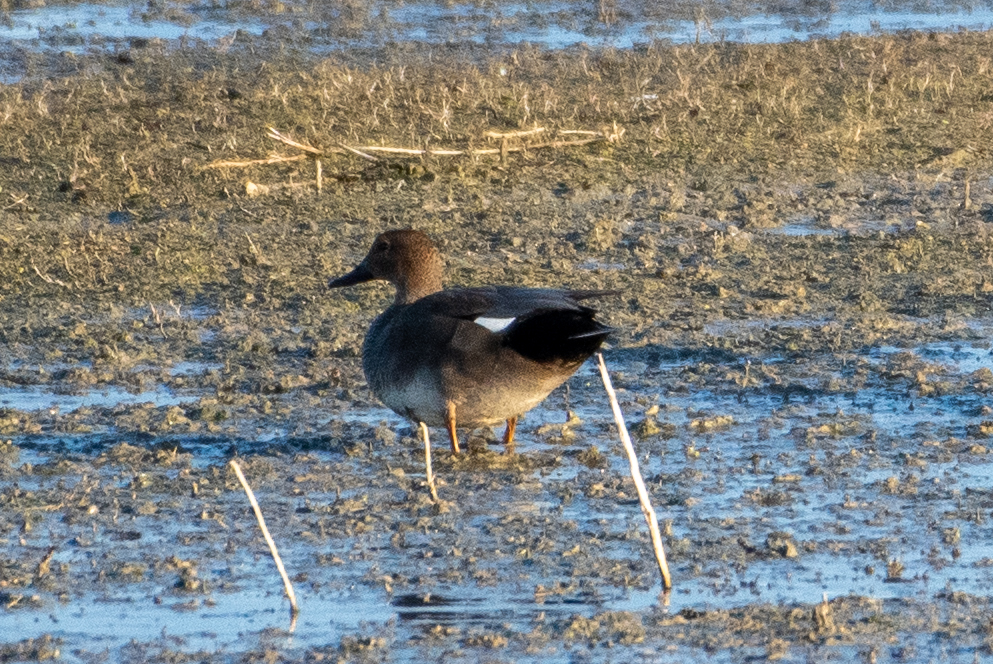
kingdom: Animalia
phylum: Chordata
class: Aves
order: Anseriformes
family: Anatidae
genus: Mareca
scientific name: Mareca strepera
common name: Gadwall
